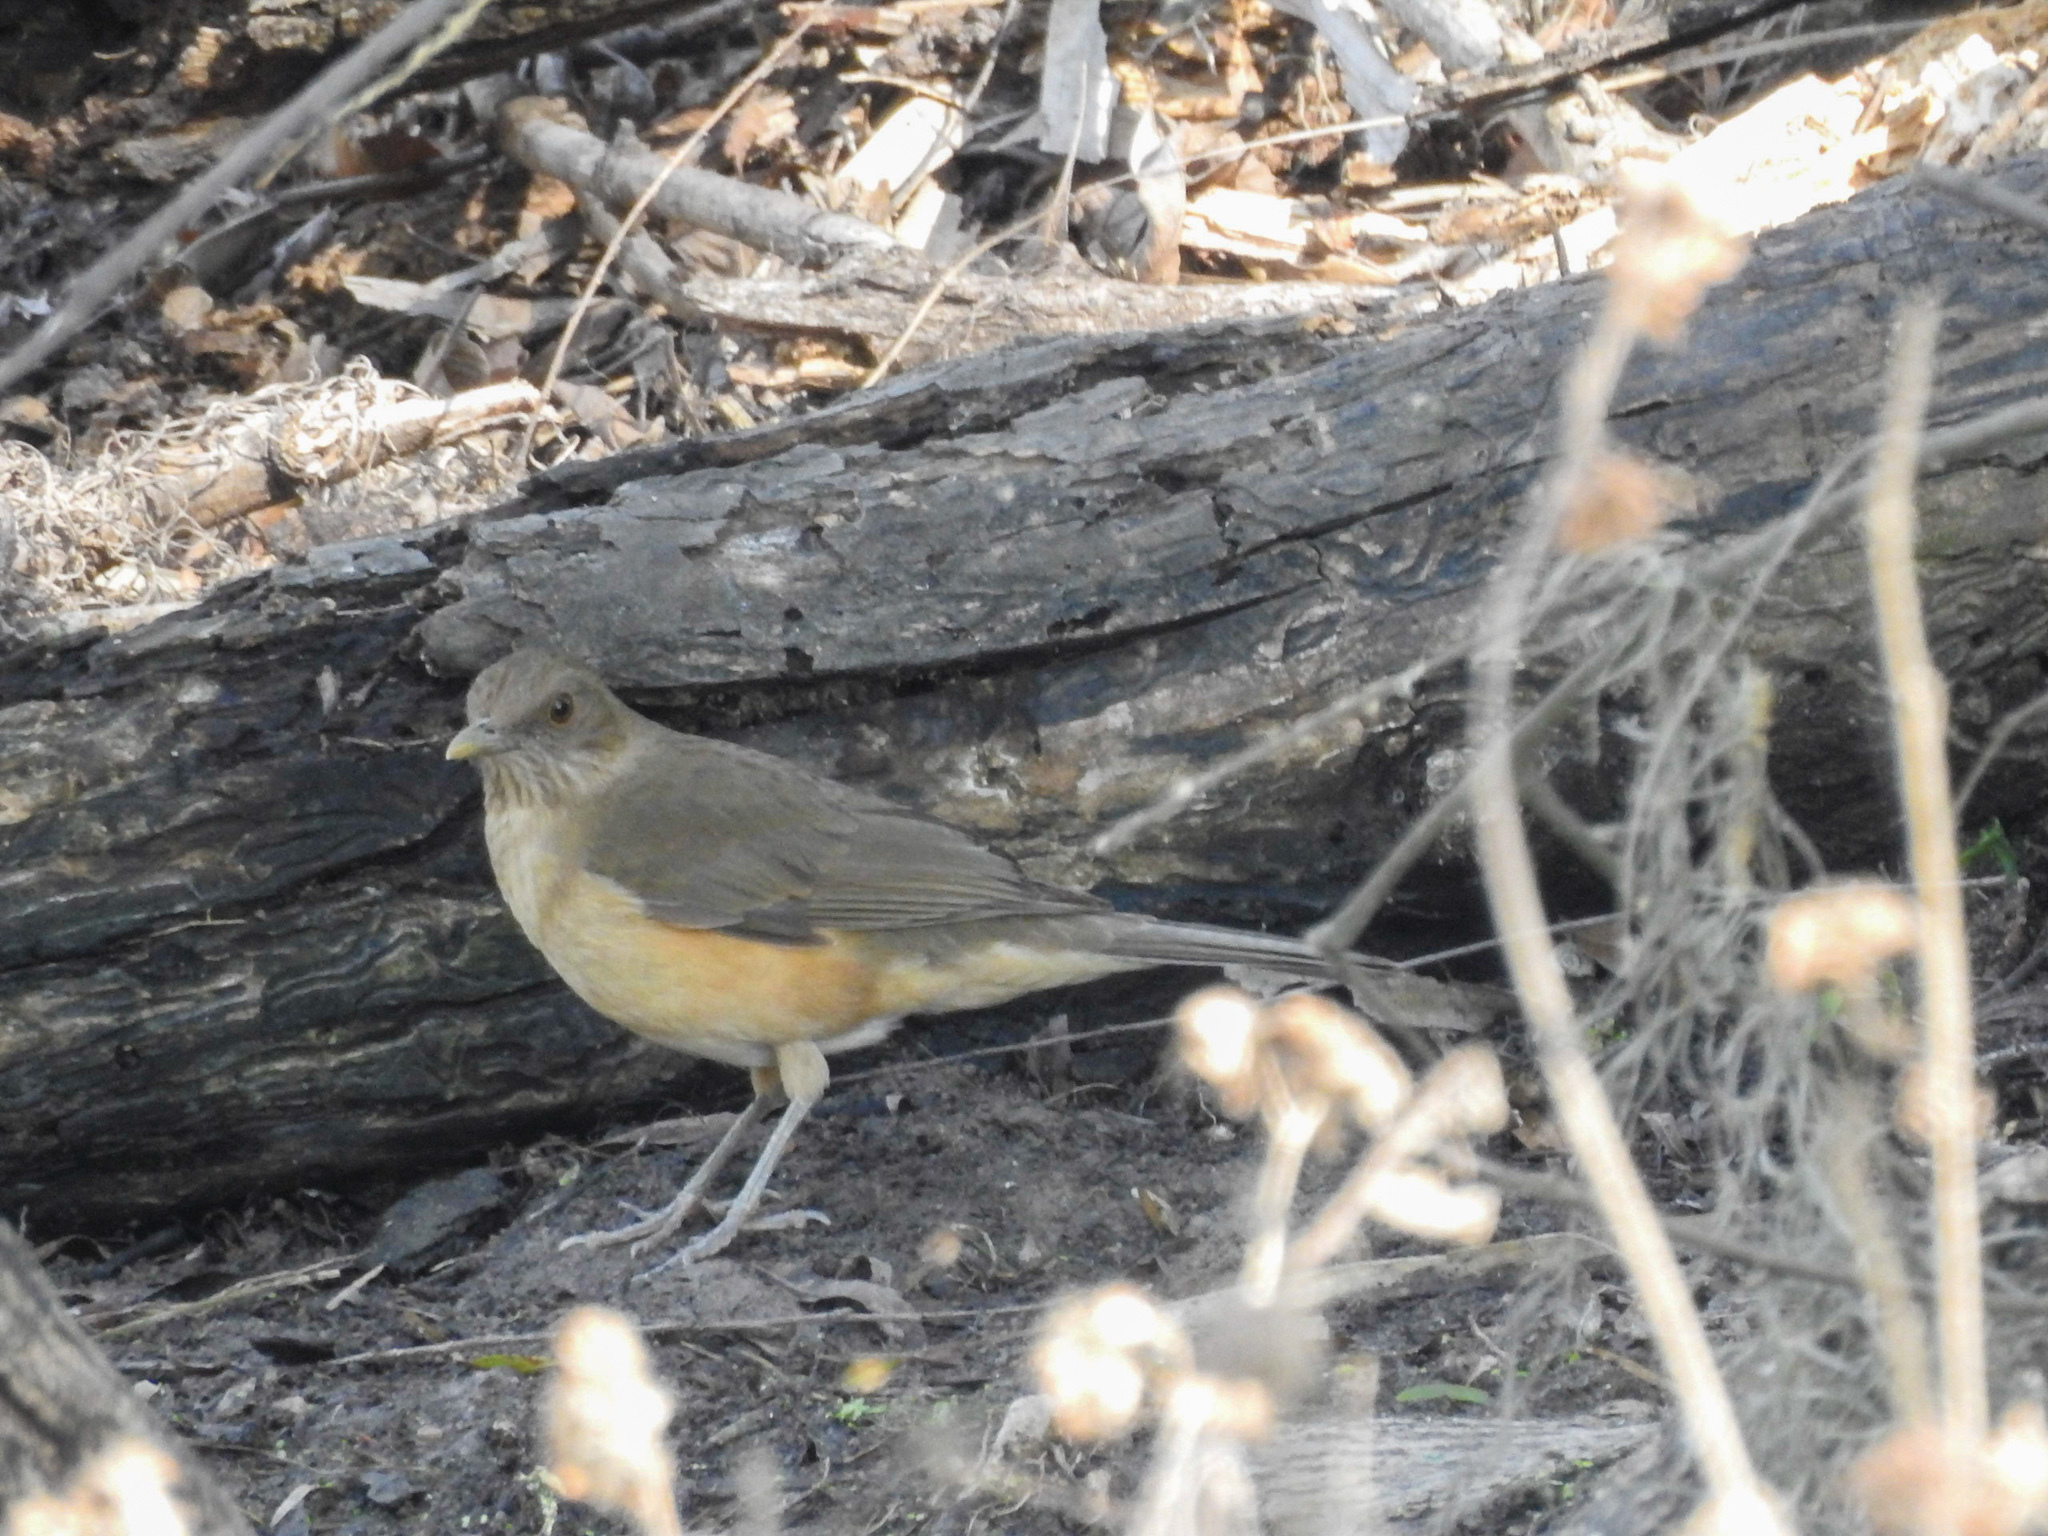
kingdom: Animalia
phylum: Chordata
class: Aves
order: Passeriformes
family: Turdidae
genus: Turdus
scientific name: Turdus grayi
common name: Clay-colored thrush
